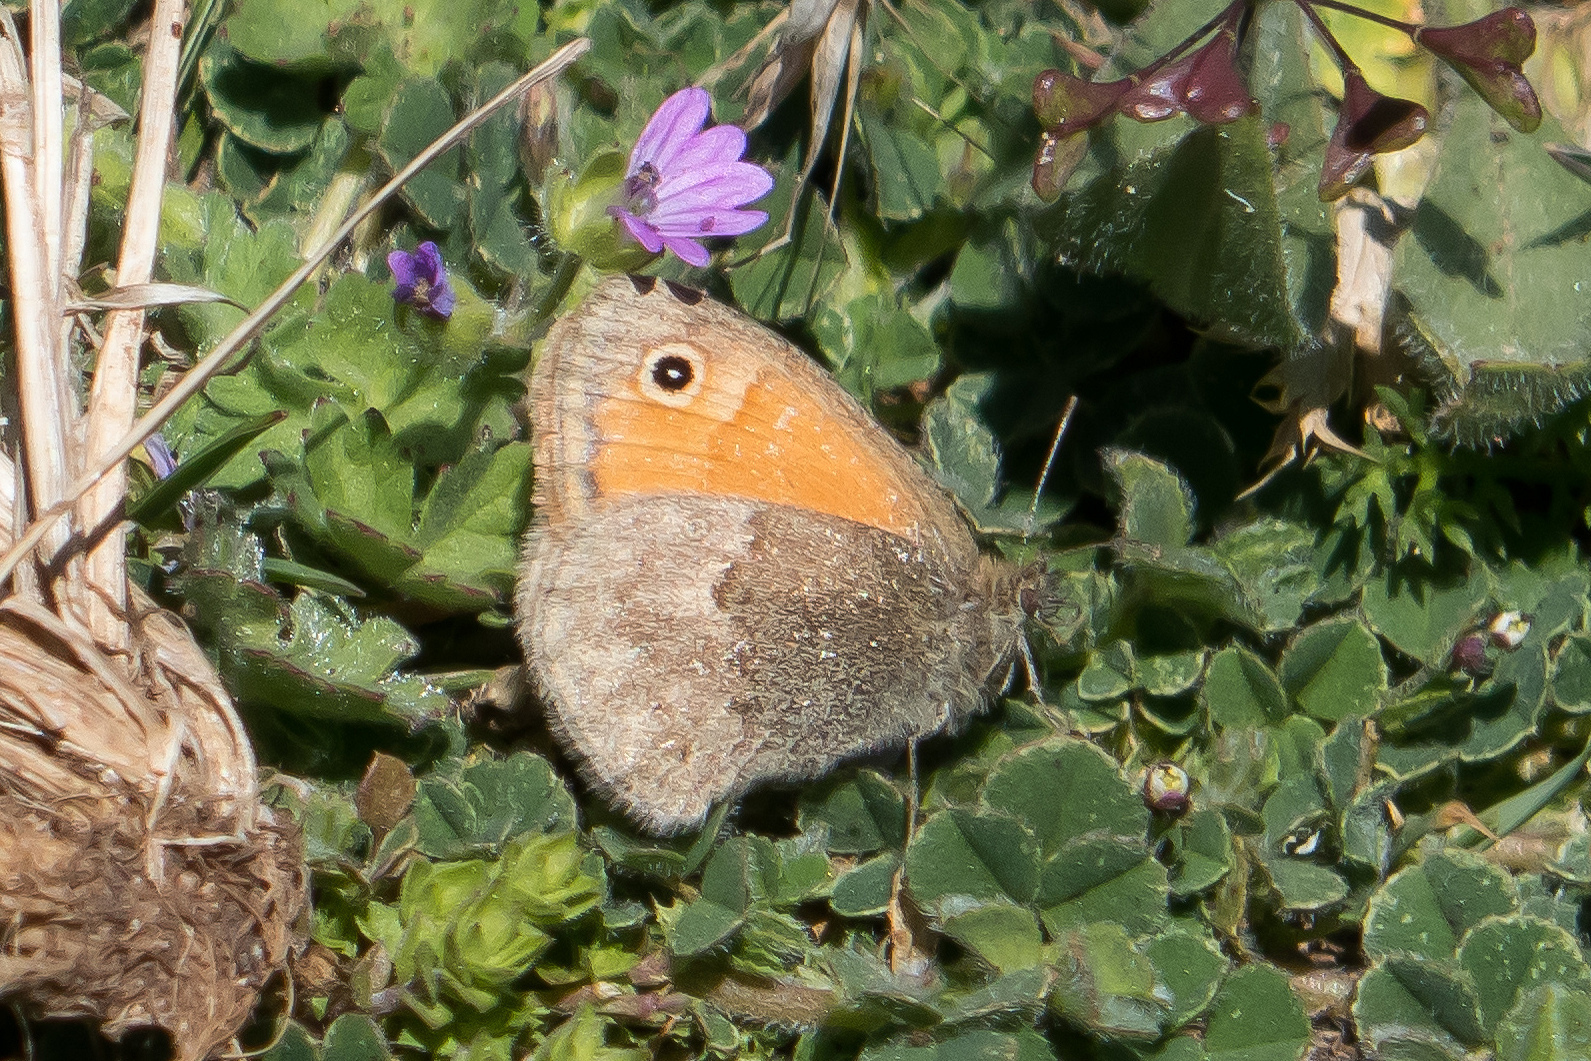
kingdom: Animalia
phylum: Arthropoda
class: Insecta
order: Lepidoptera
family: Nymphalidae
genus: Coenonympha
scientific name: Coenonympha pamphilus
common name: Small heath
